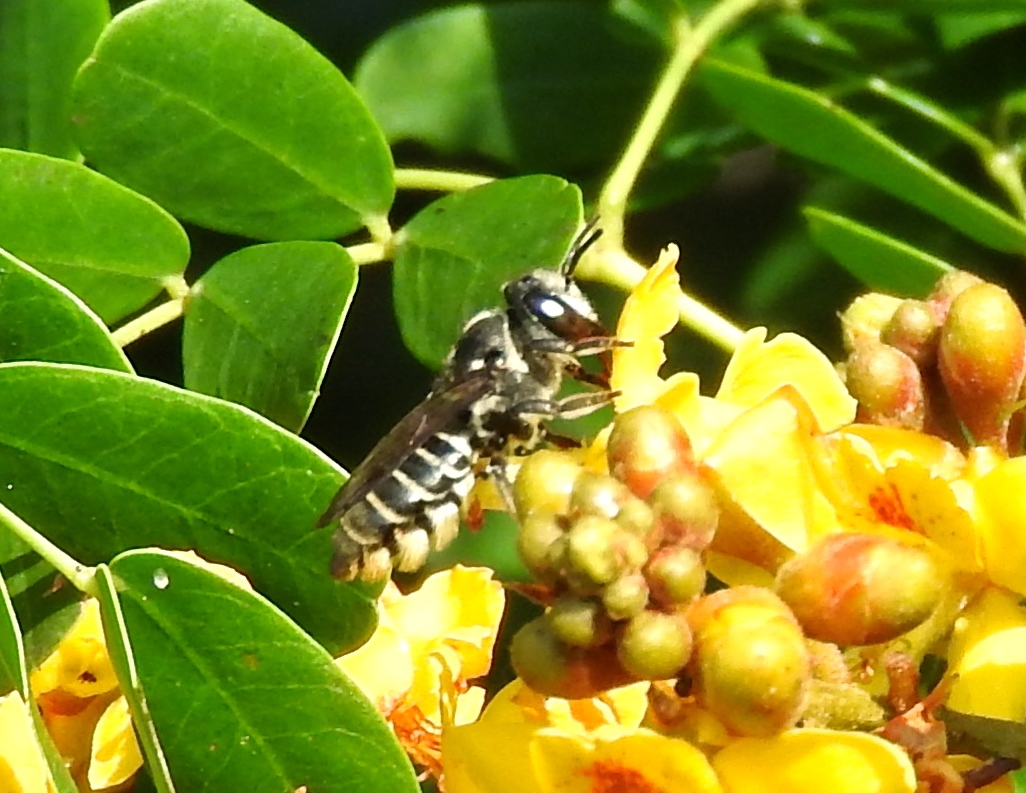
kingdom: Animalia
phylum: Arthropoda
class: Insecta
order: Hymenoptera
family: Megachilidae
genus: Megachile
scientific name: Megachile
